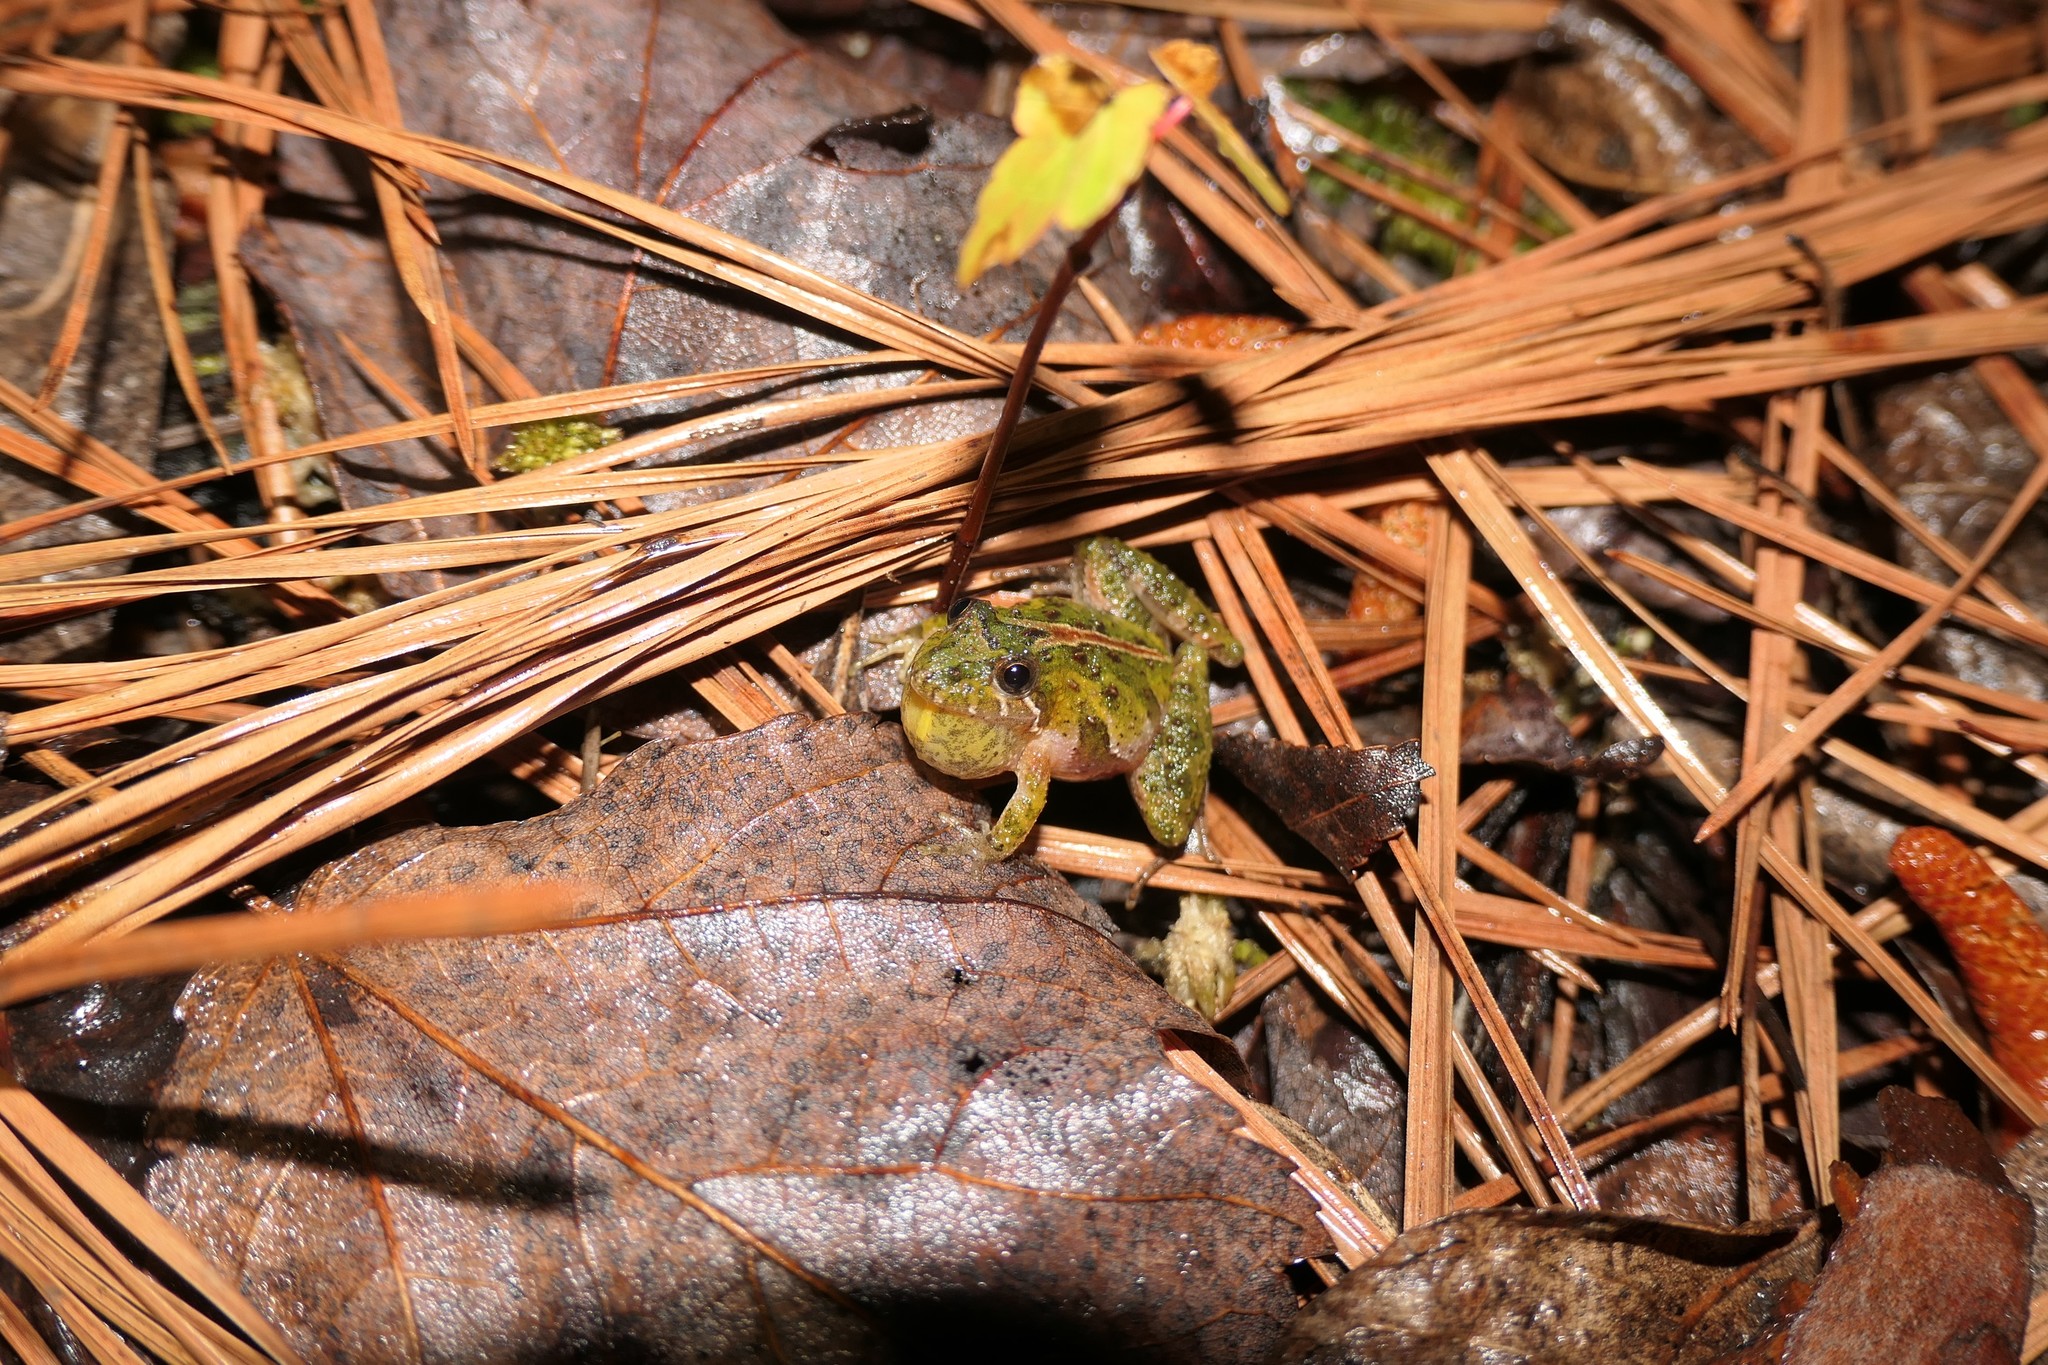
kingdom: Animalia
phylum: Chordata
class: Amphibia
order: Anura
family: Hylidae
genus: Acris
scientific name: Acris gryllus
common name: Southern cricket frog
